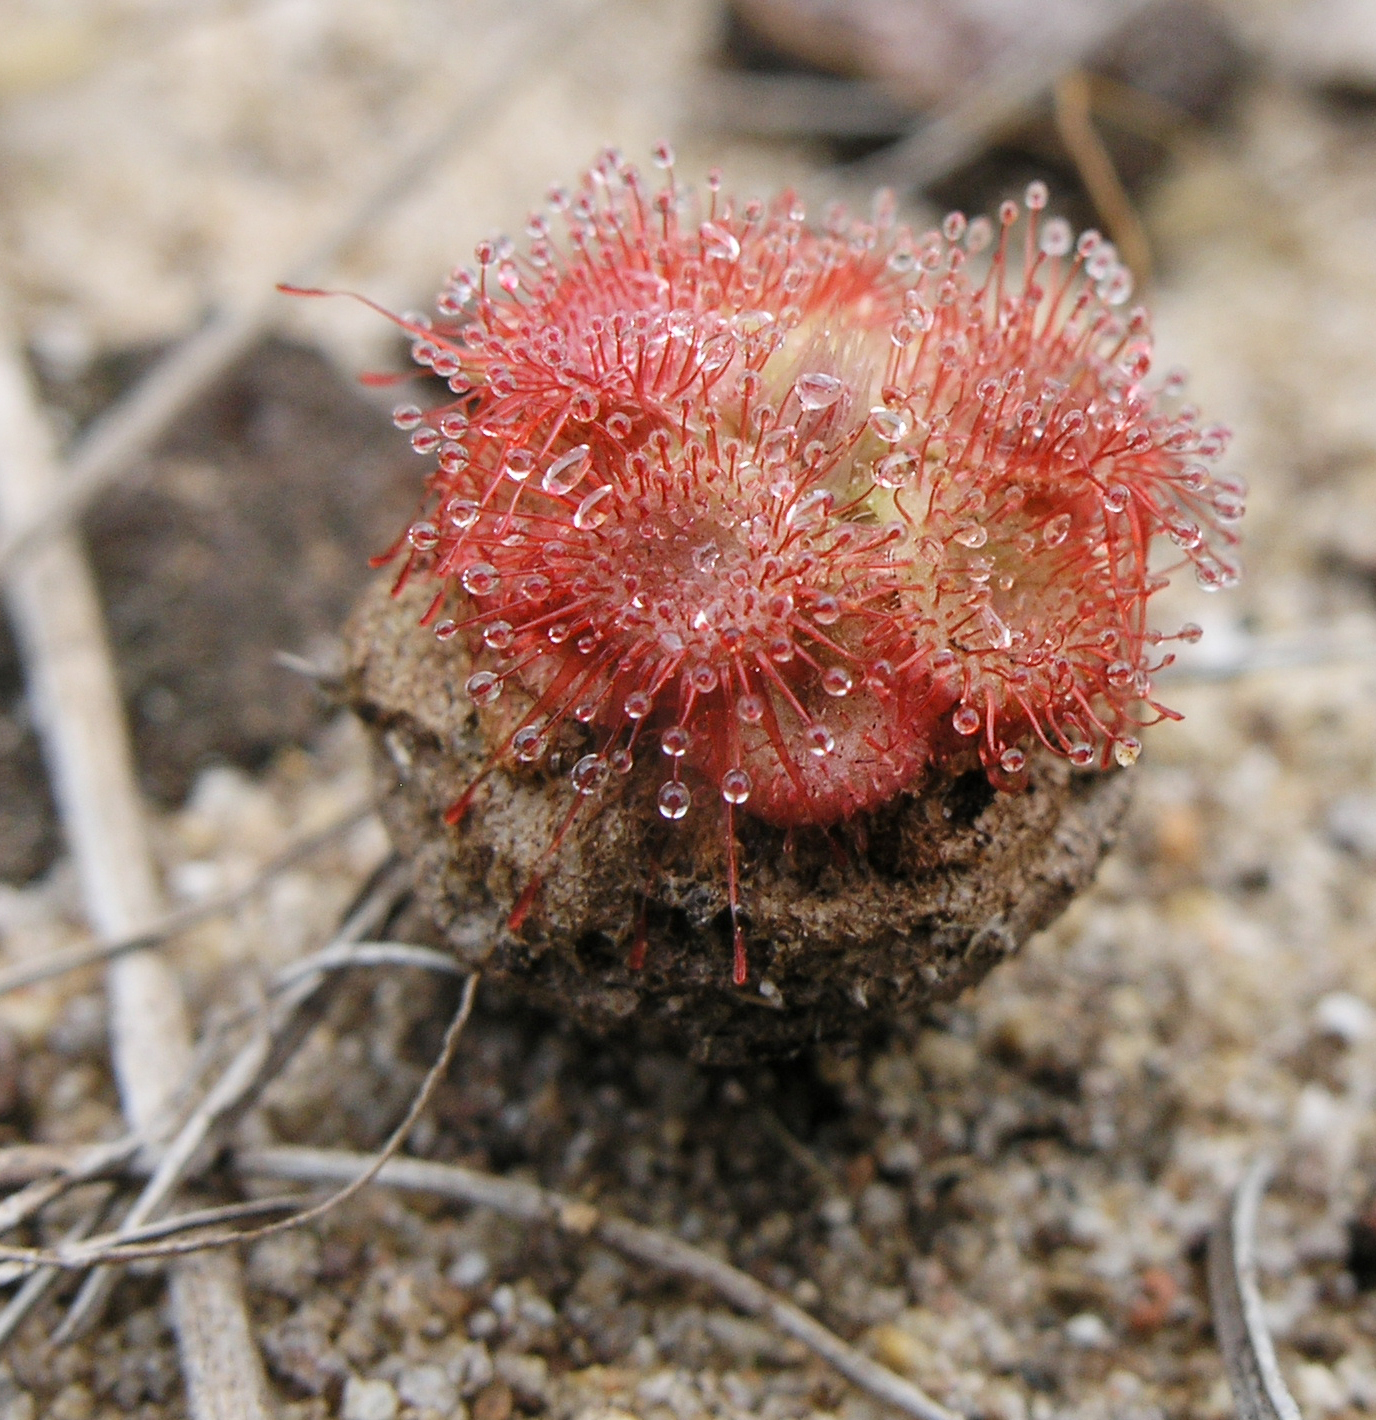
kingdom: Plantae
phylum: Tracheophyta
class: Magnoliopsida
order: Caryophyllales
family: Droseraceae
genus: Drosera
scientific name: Drosera spatulata
